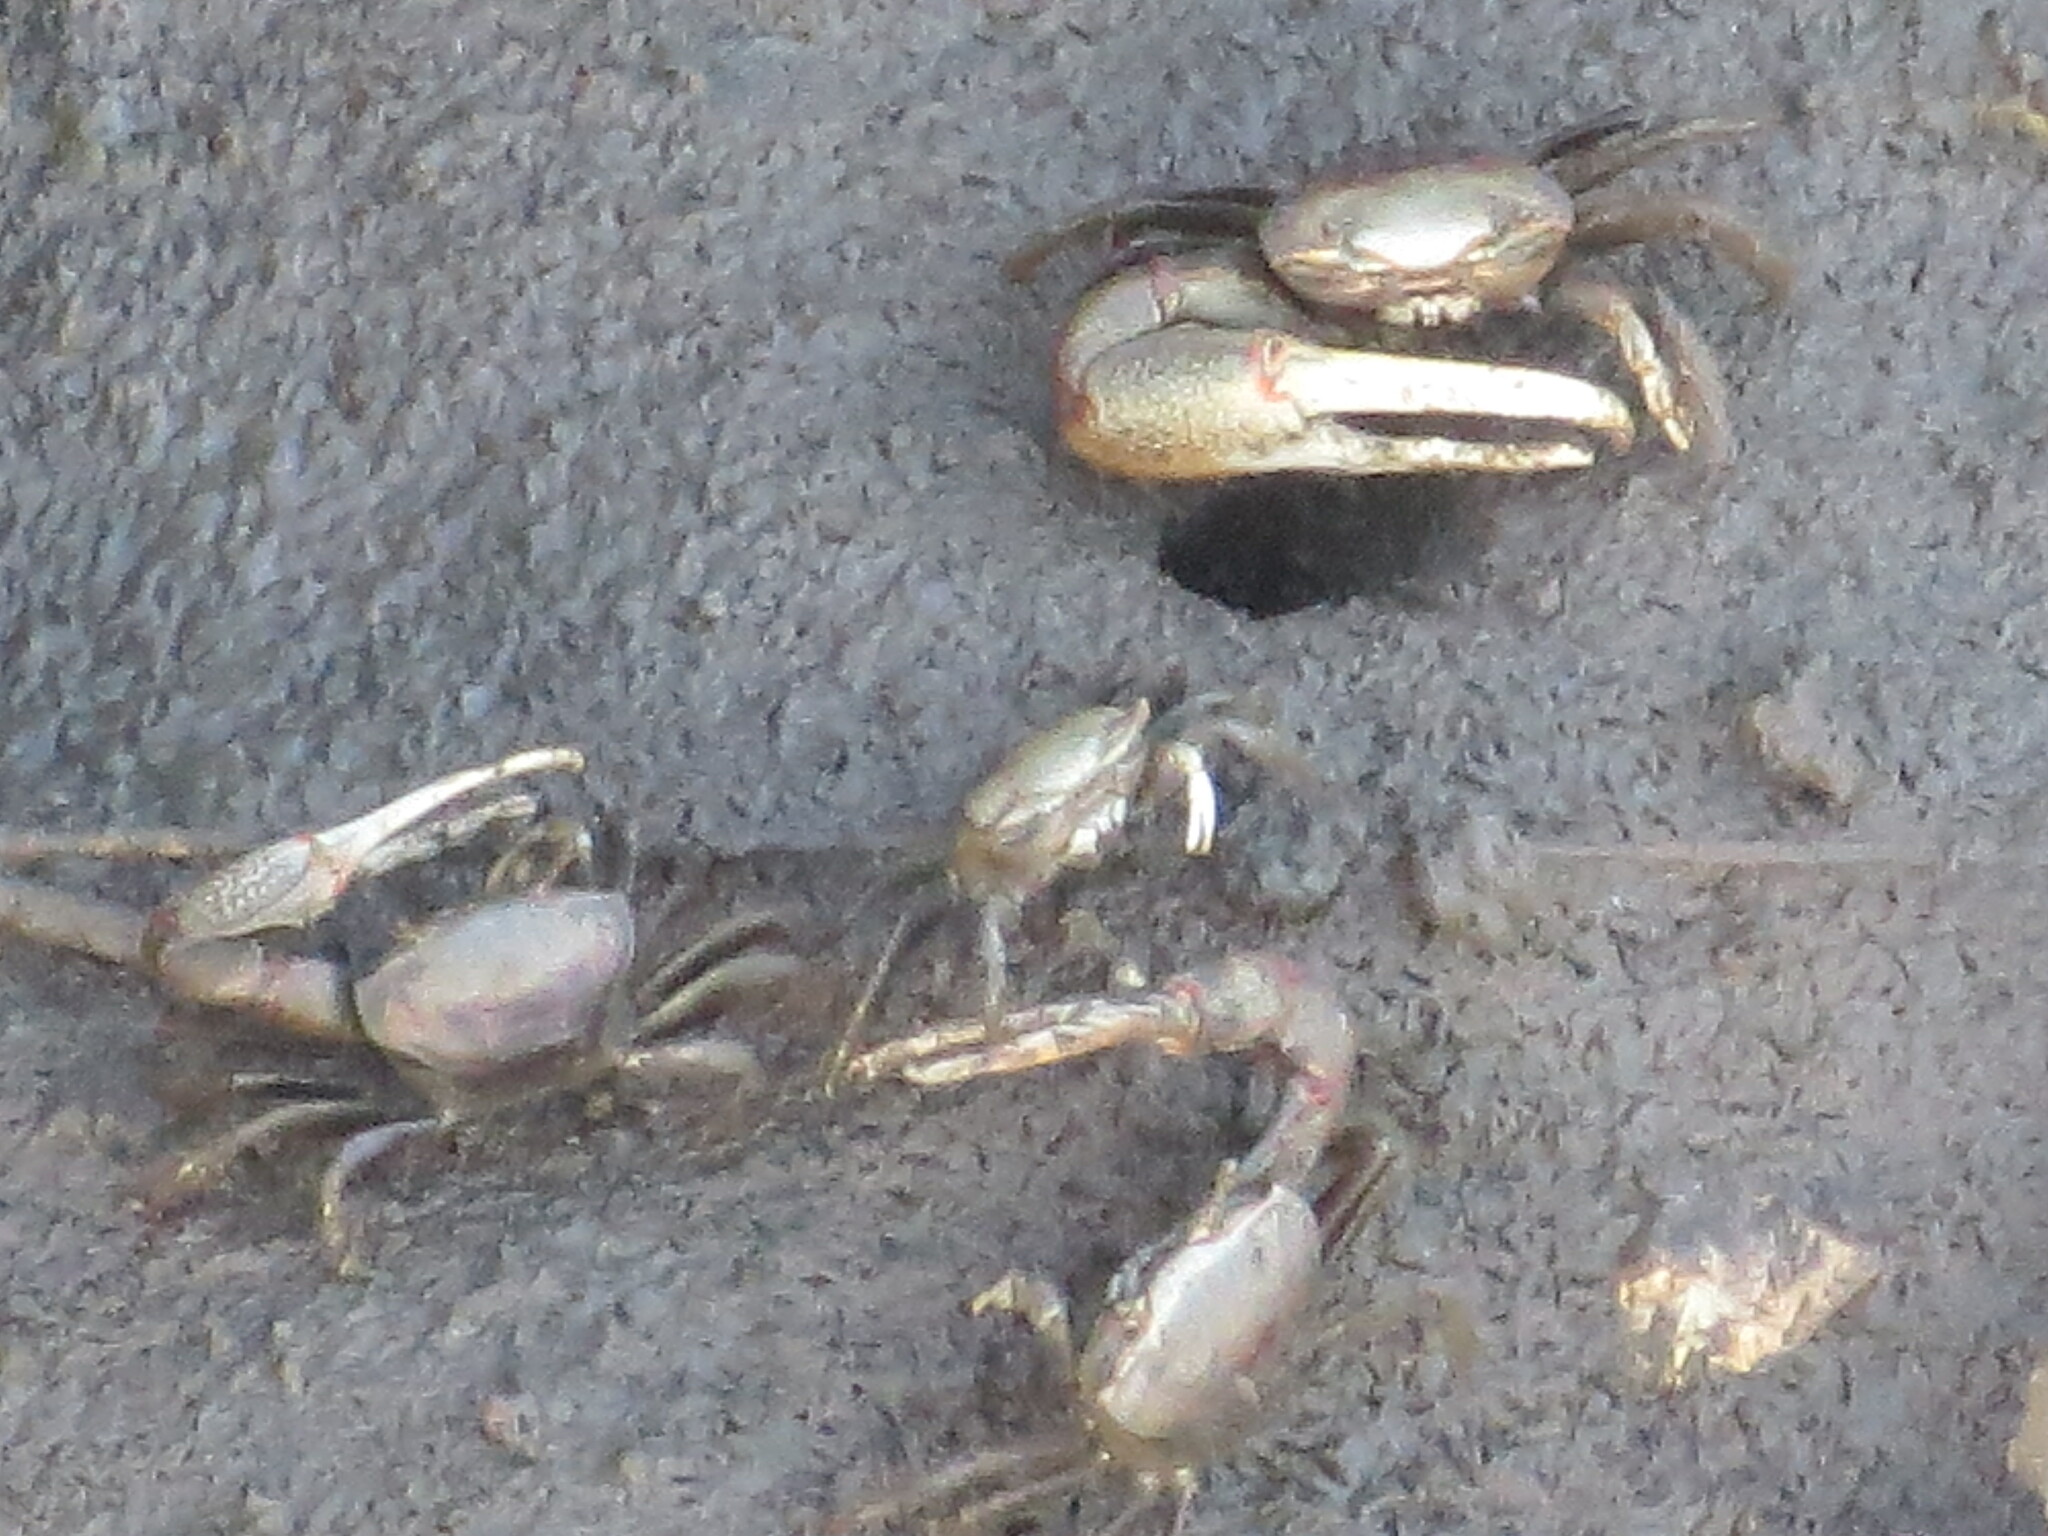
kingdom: Animalia
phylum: Arthropoda
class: Malacostraca
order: Decapoda
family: Ocypodidae
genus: Minuca
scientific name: Minuca minax
